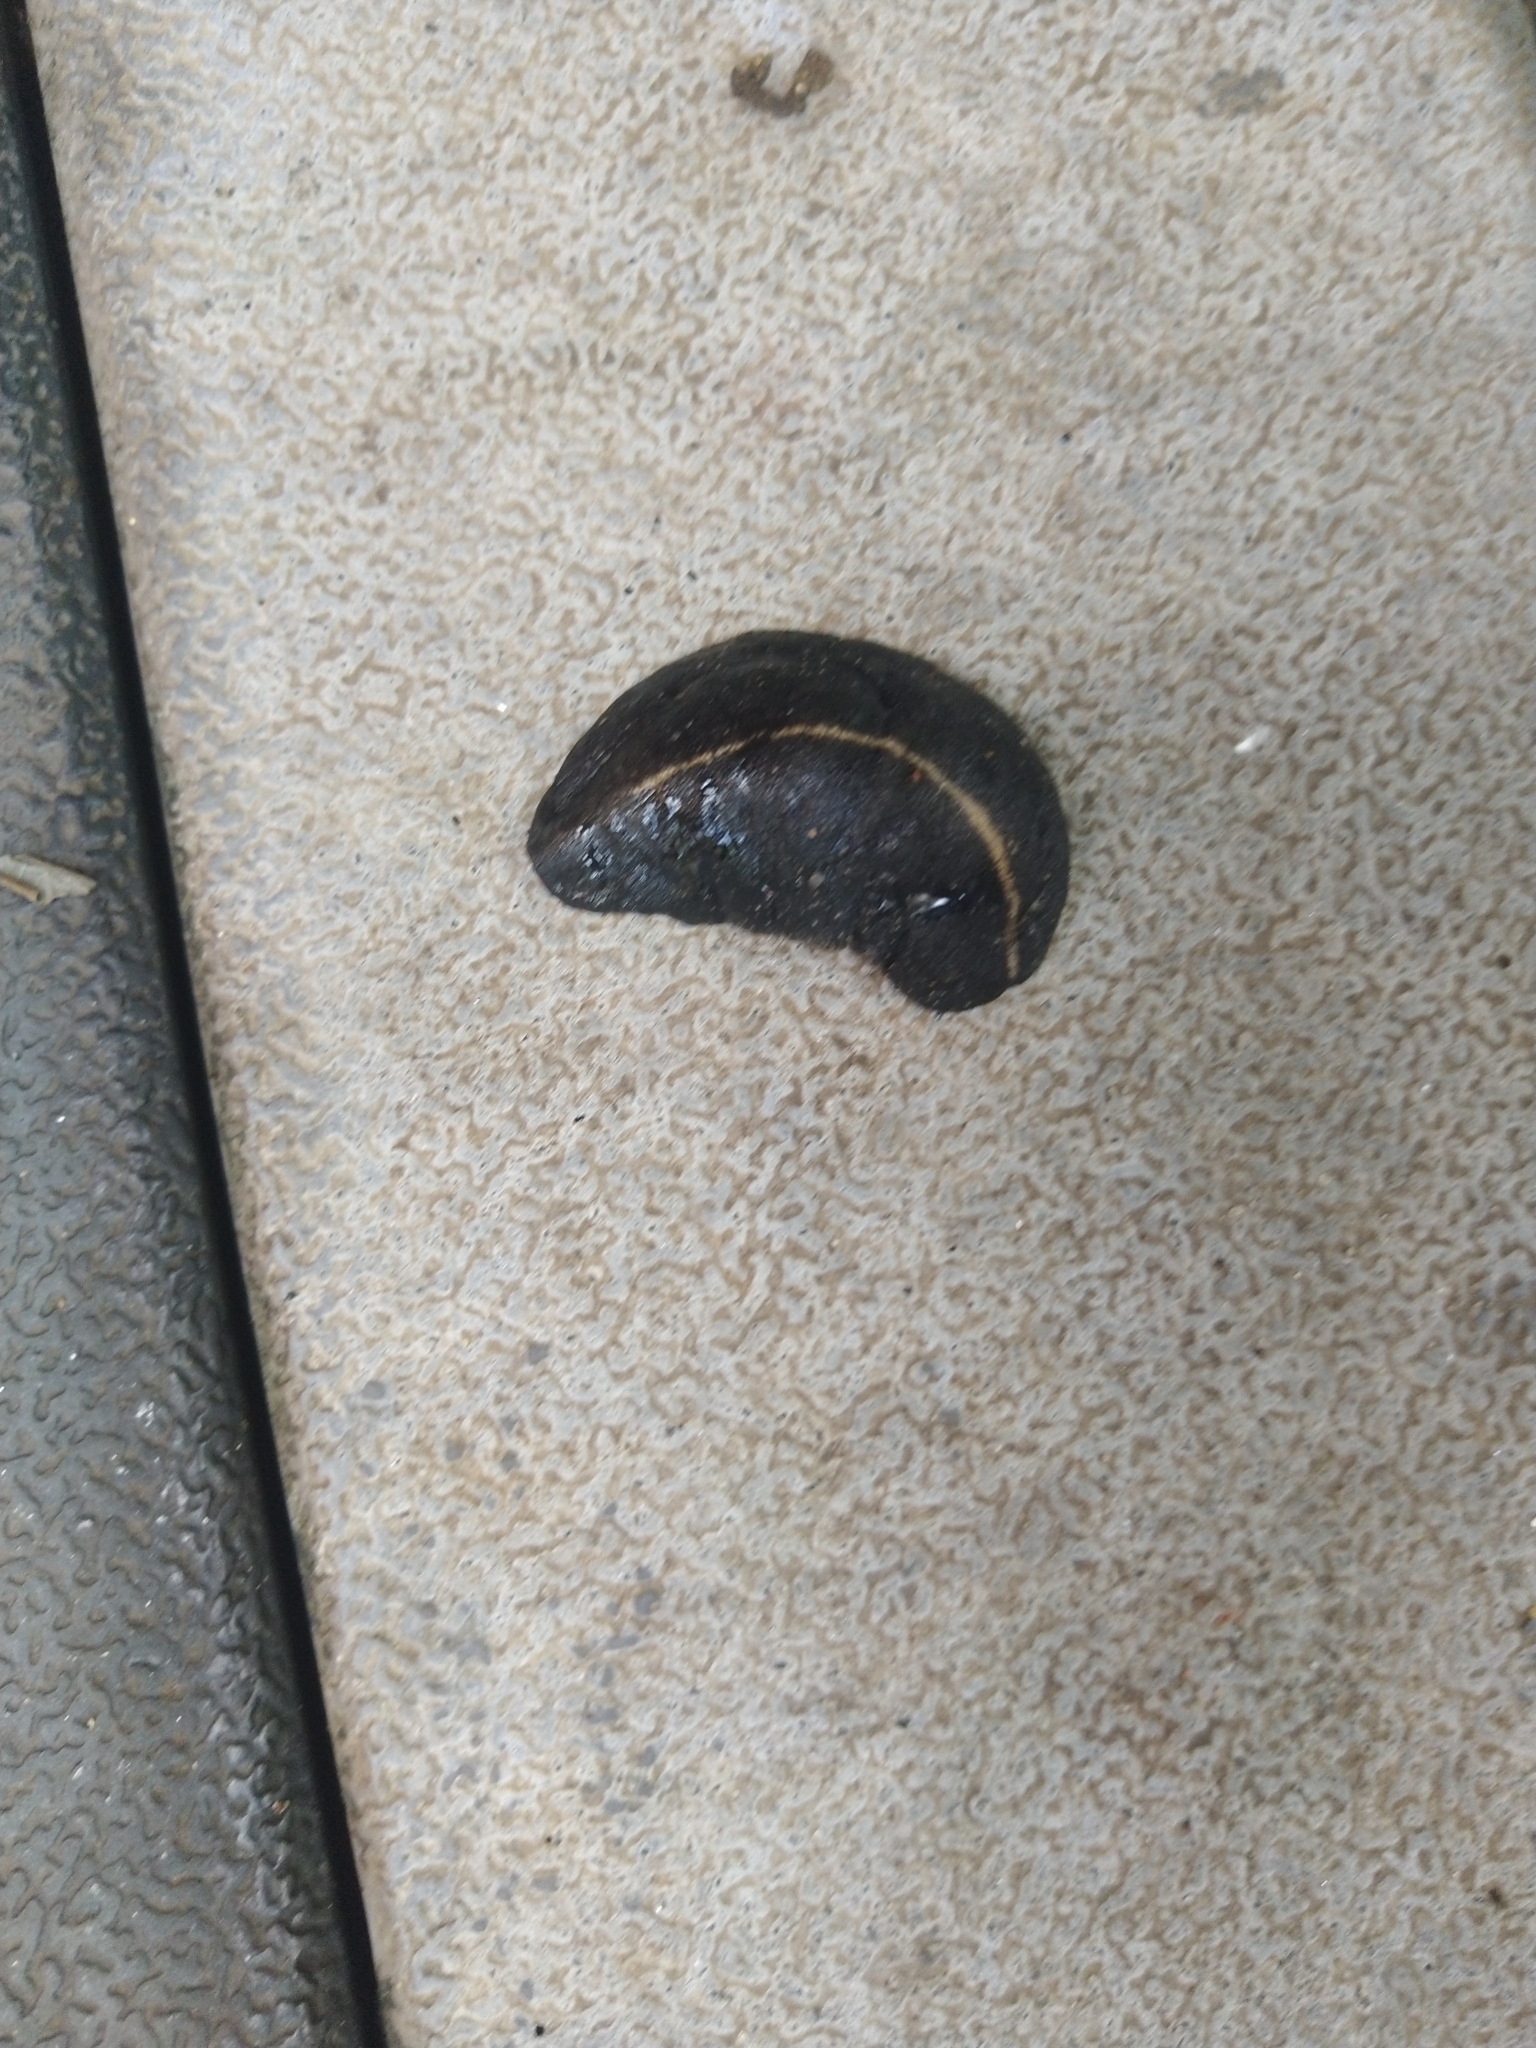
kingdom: Animalia
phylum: Mollusca
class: Gastropoda
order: Systellommatophora
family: Veronicellidae
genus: Laevicaulis
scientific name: Laevicaulis alte
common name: Tropical leatherleaf
